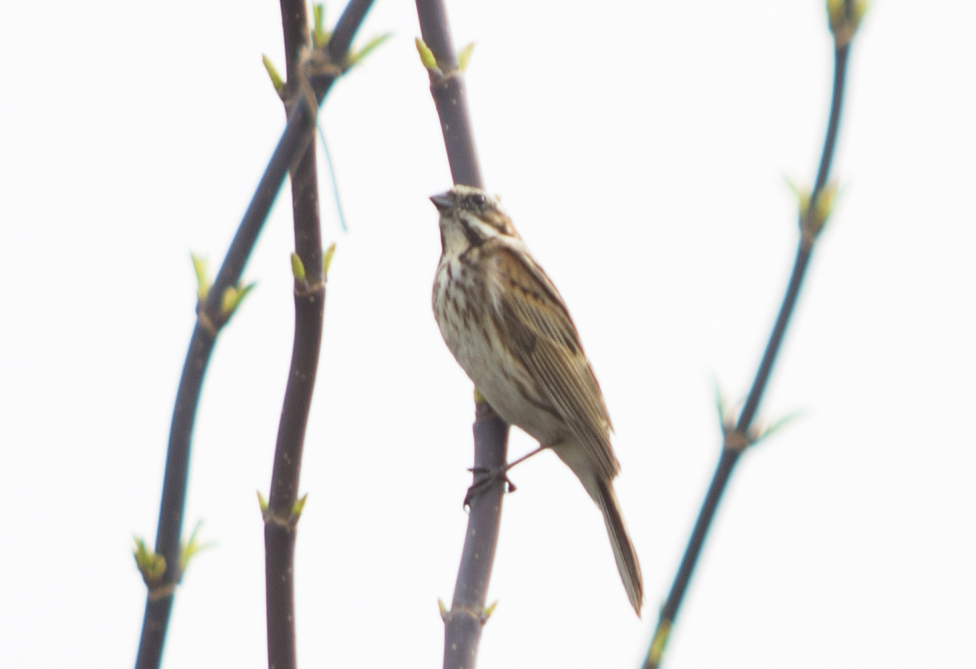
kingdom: Animalia
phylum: Chordata
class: Aves
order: Passeriformes
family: Emberizidae
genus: Emberiza
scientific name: Emberiza schoeniclus
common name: Reed bunting
